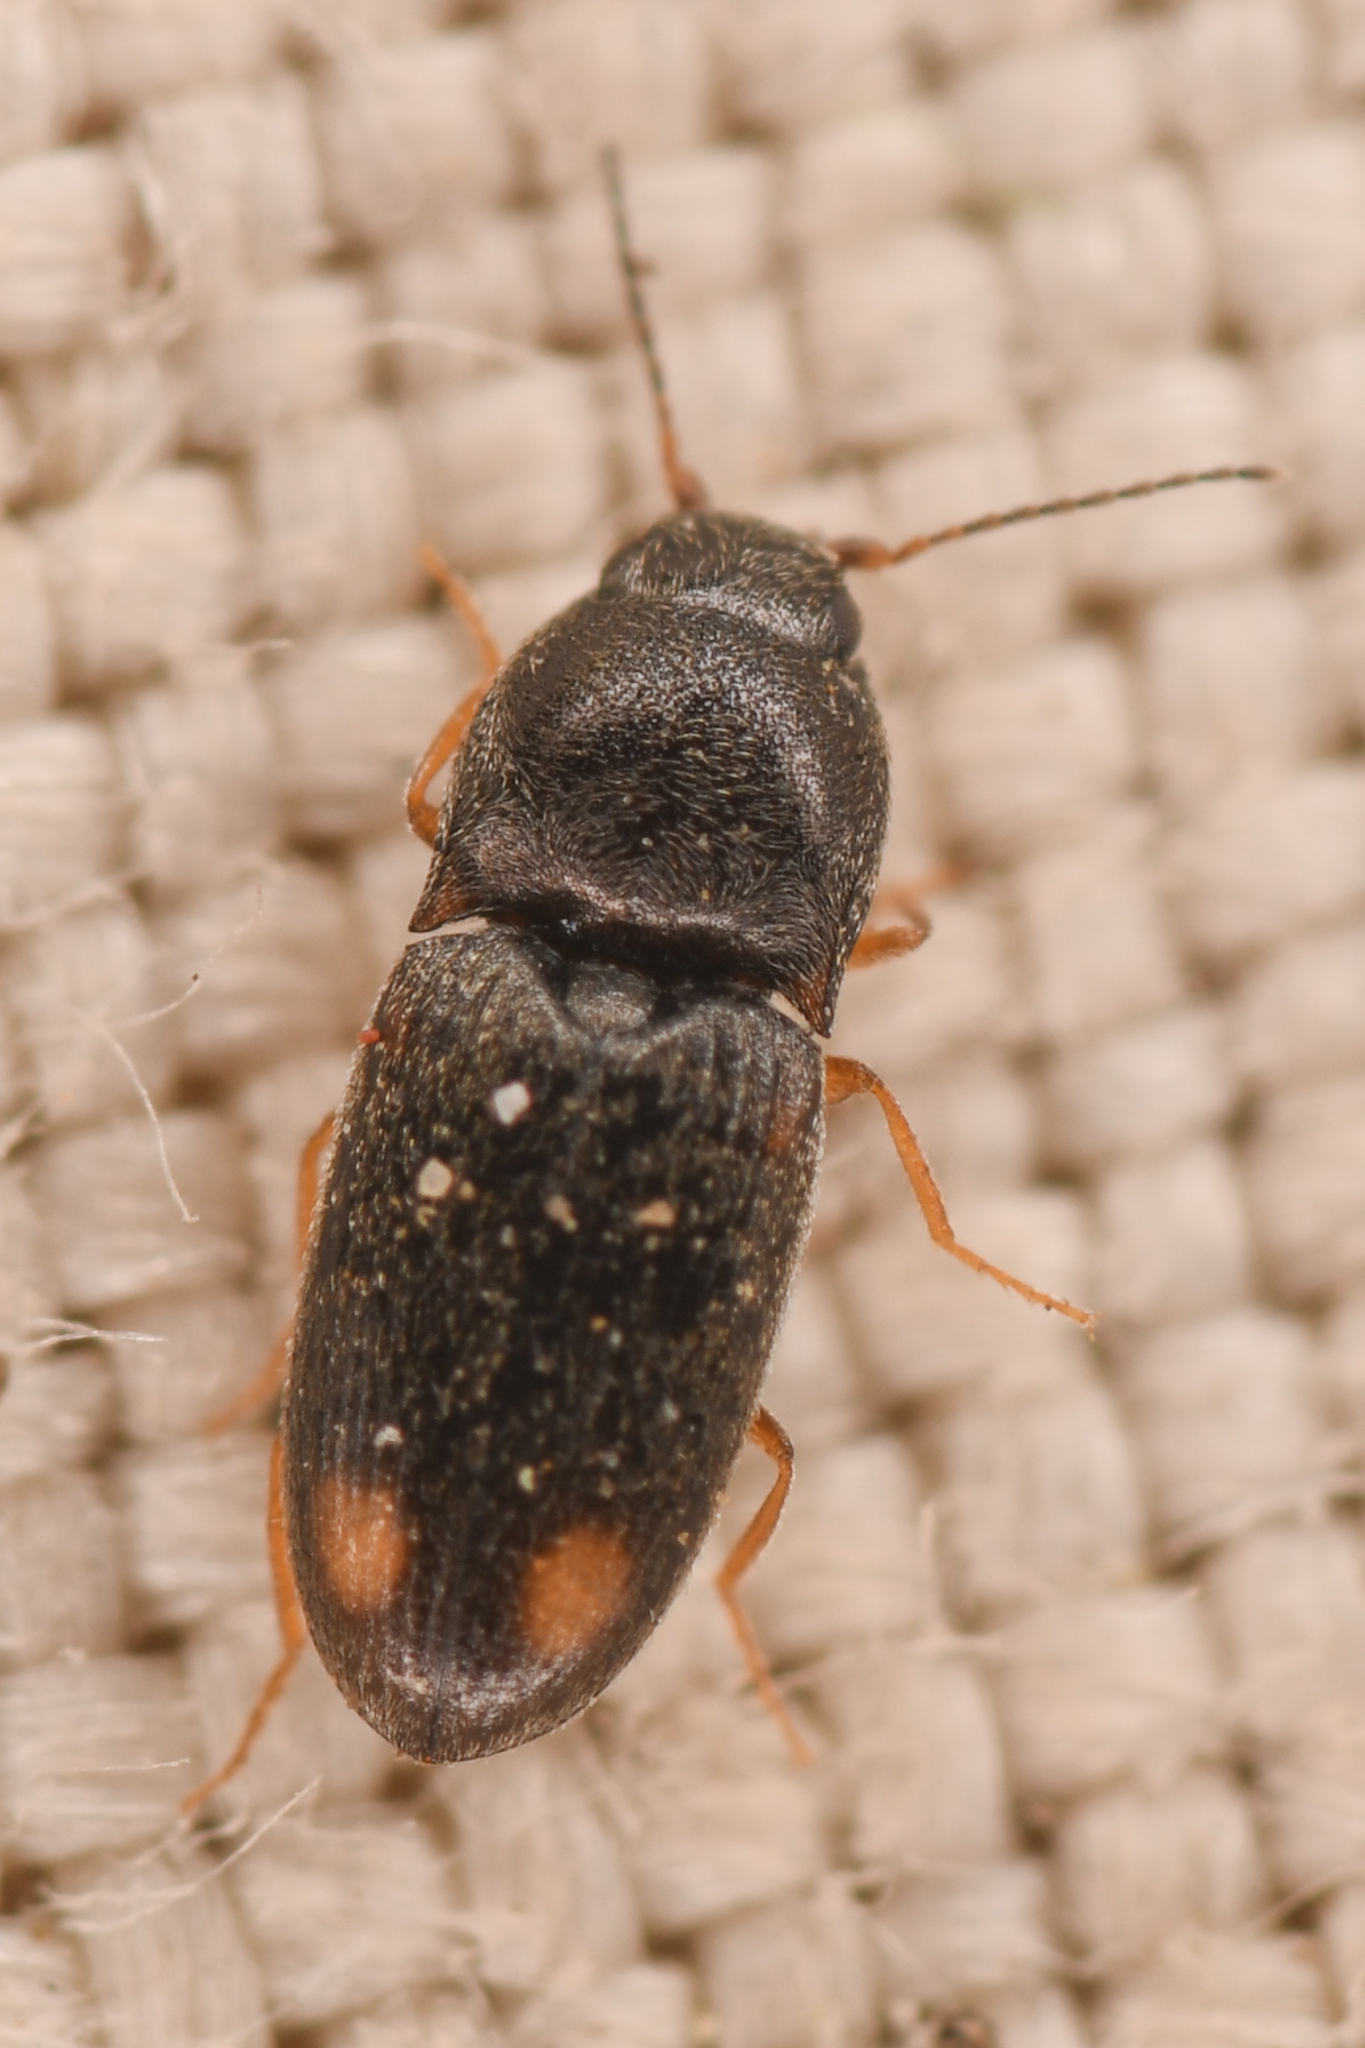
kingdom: Animalia
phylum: Arthropoda
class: Insecta
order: Coleoptera
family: Elateridae
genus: Zorochros
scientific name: Zorochros caurinus
